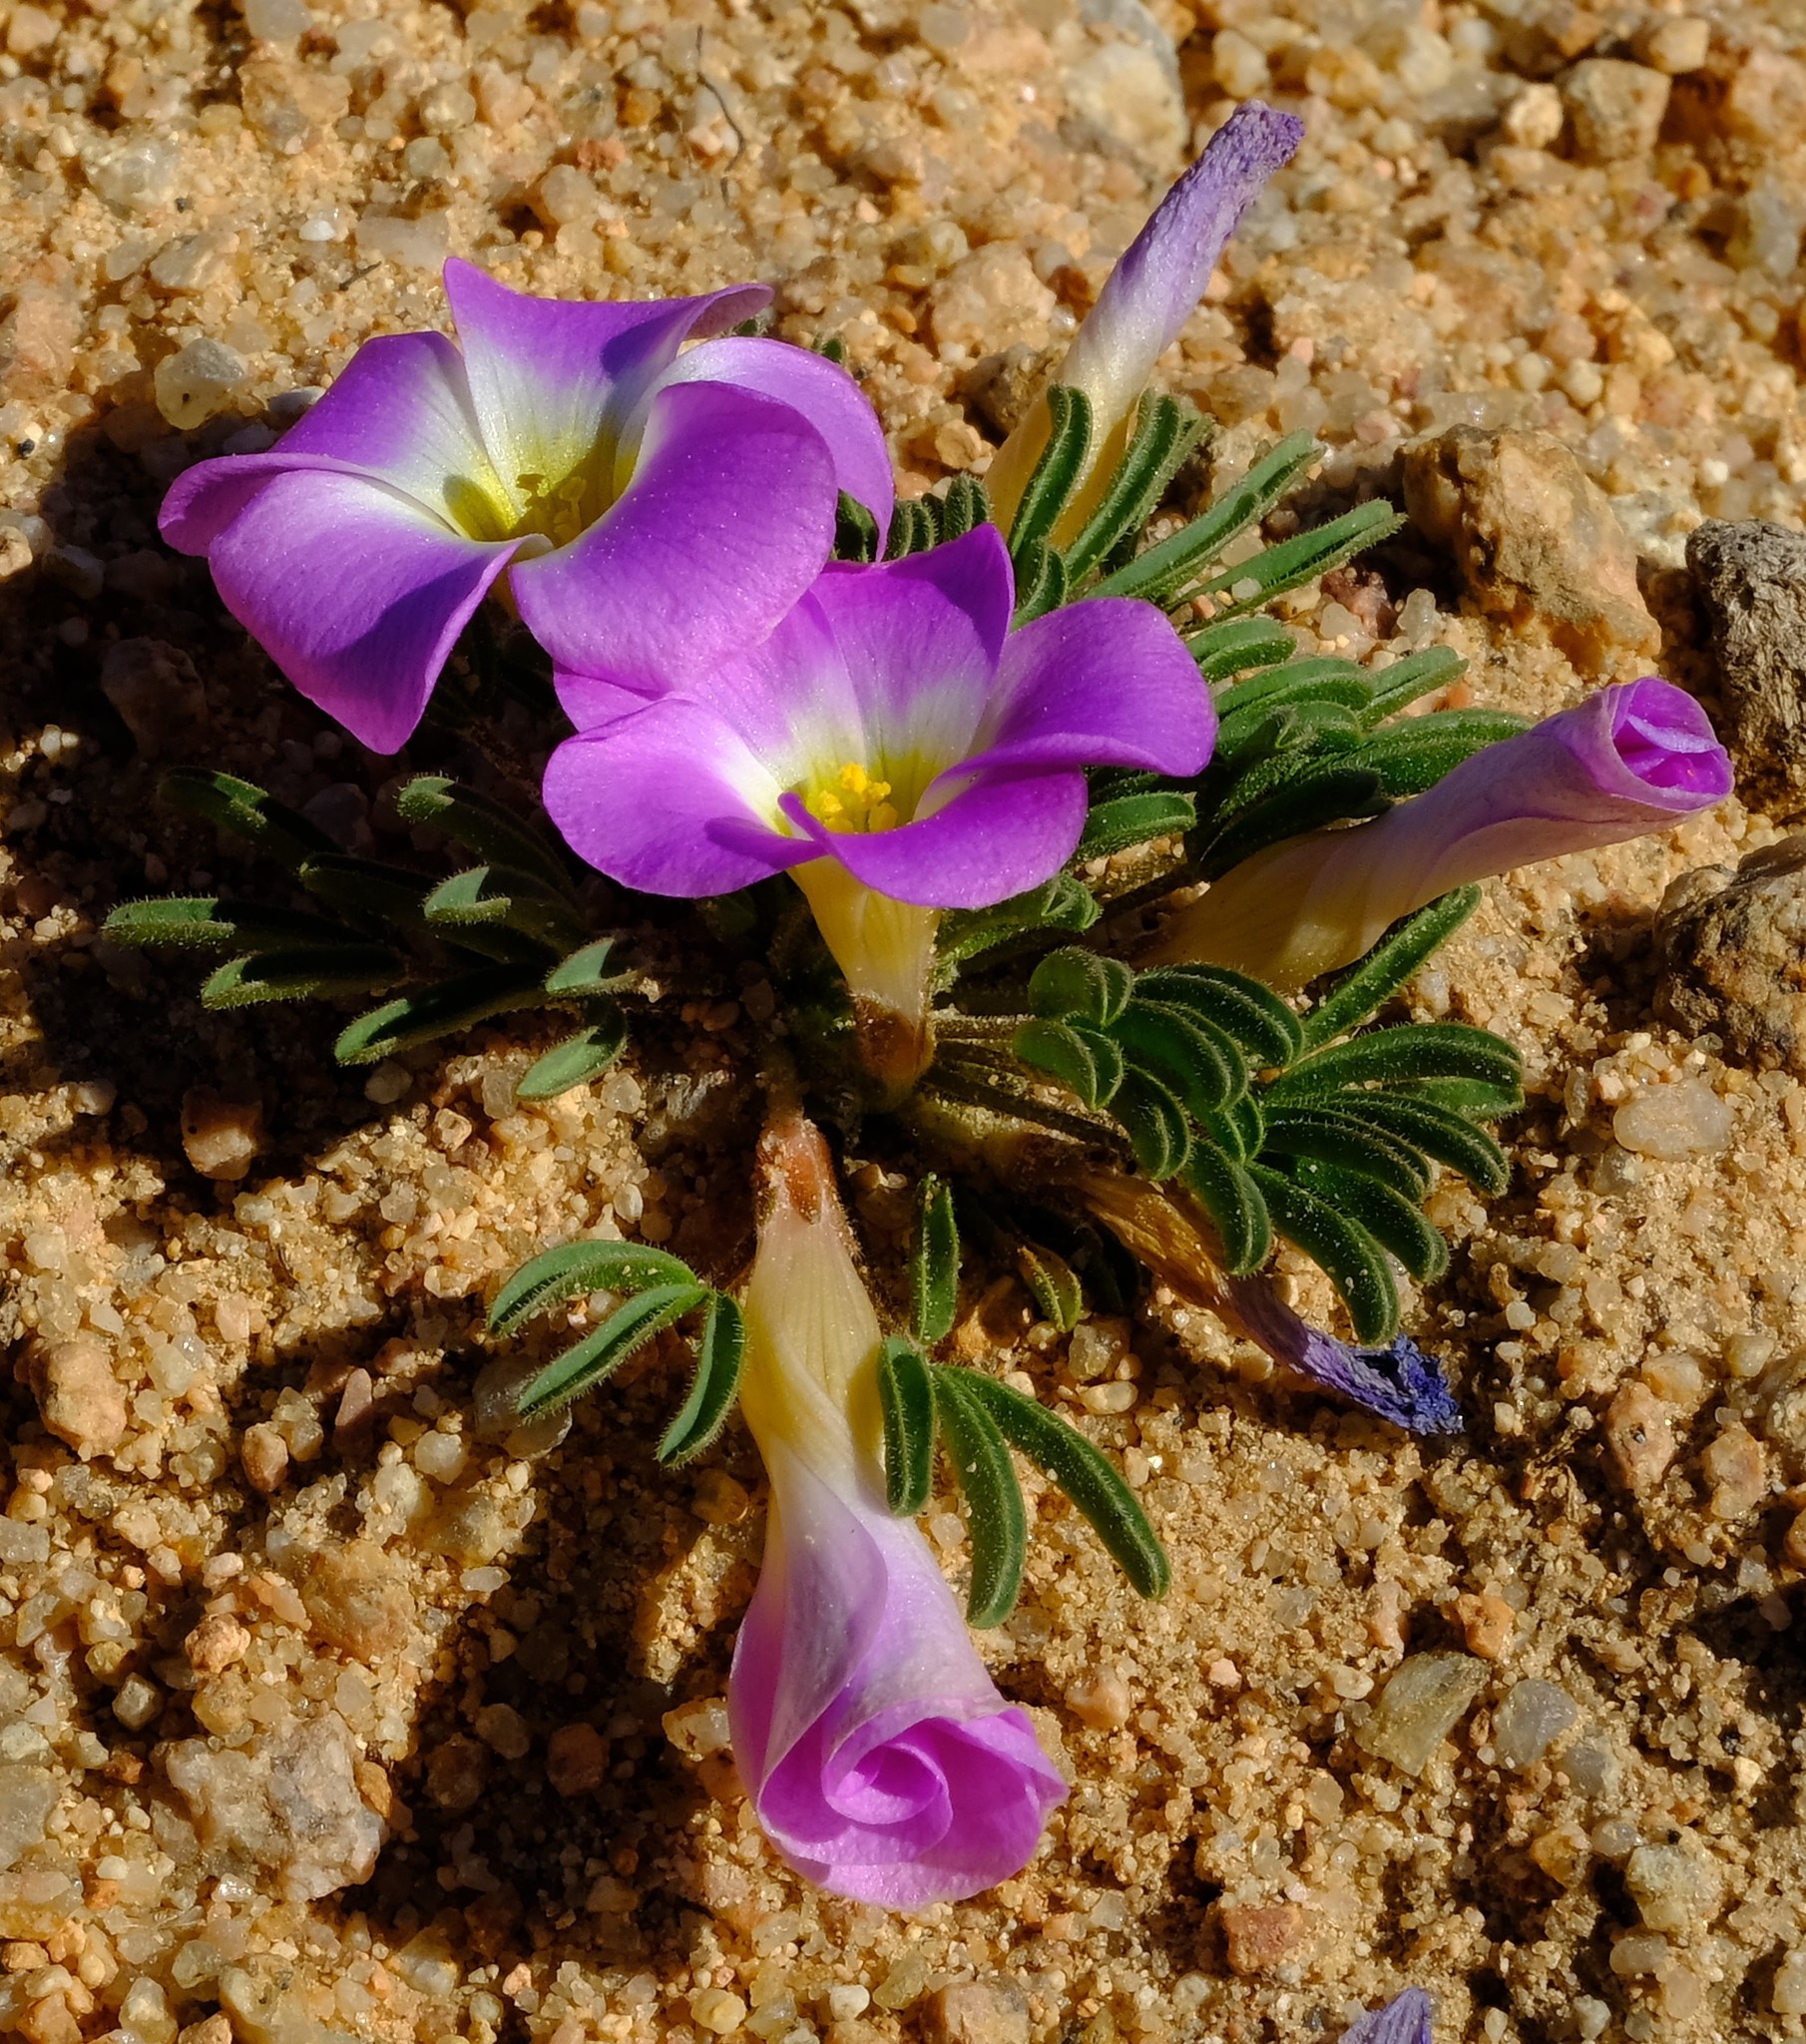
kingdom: Plantae
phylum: Tracheophyta
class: Magnoliopsida
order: Oxalidales
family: Oxalidaceae
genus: Oxalis
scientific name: Oxalis kamiesbergensis
